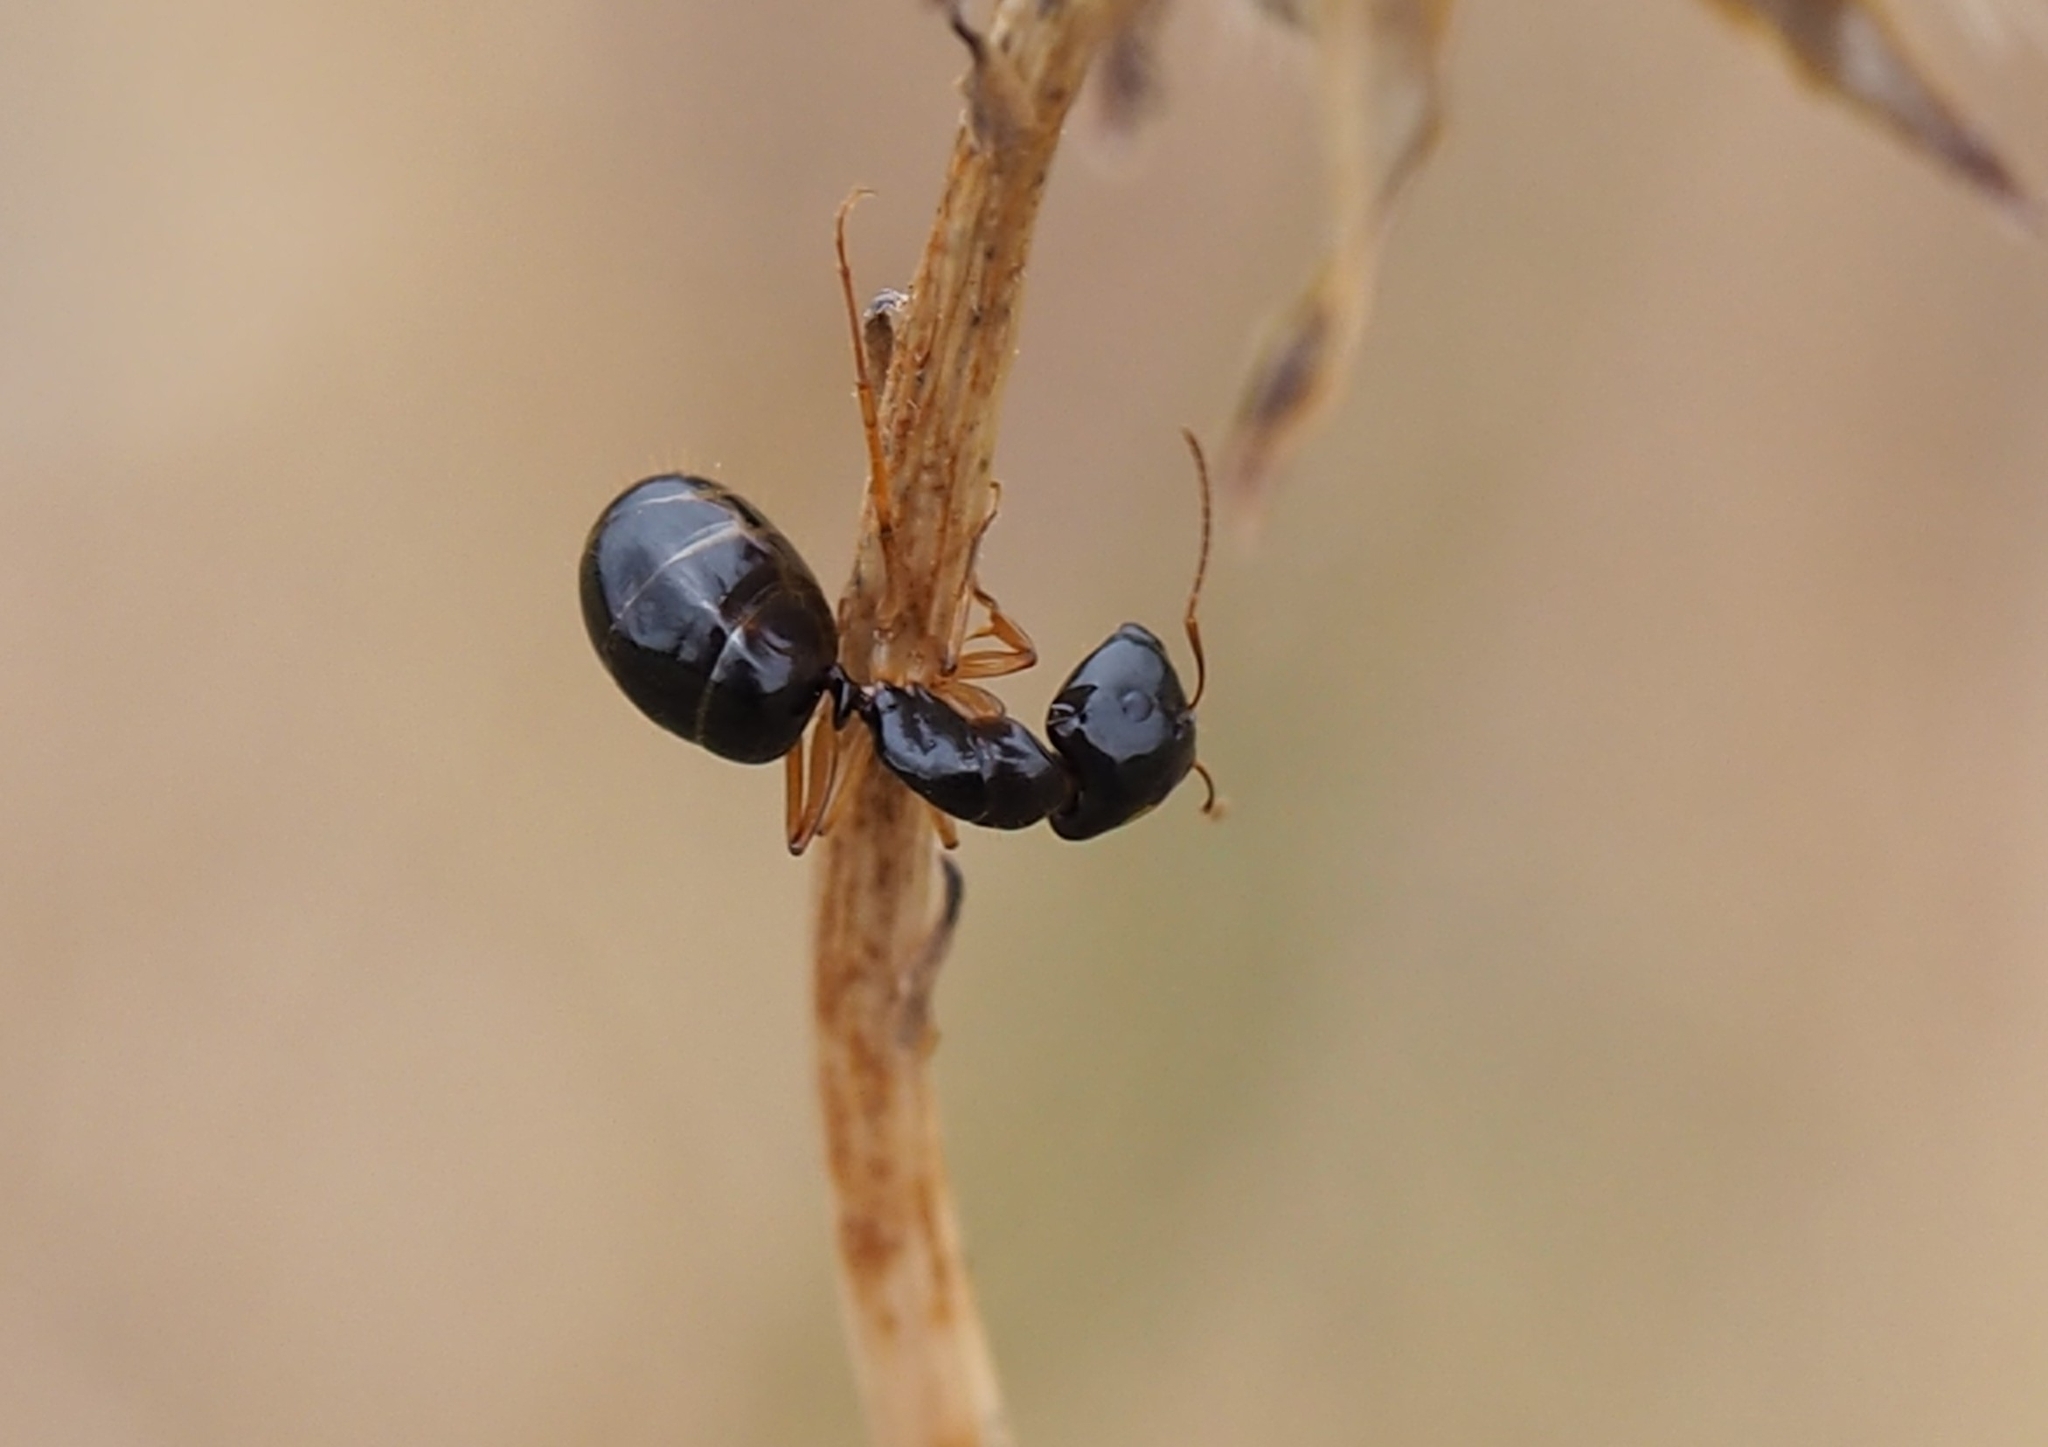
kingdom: Animalia
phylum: Arthropoda
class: Insecta
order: Hymenoptera
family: Formicidae
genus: Camponotus
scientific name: Camponotus
